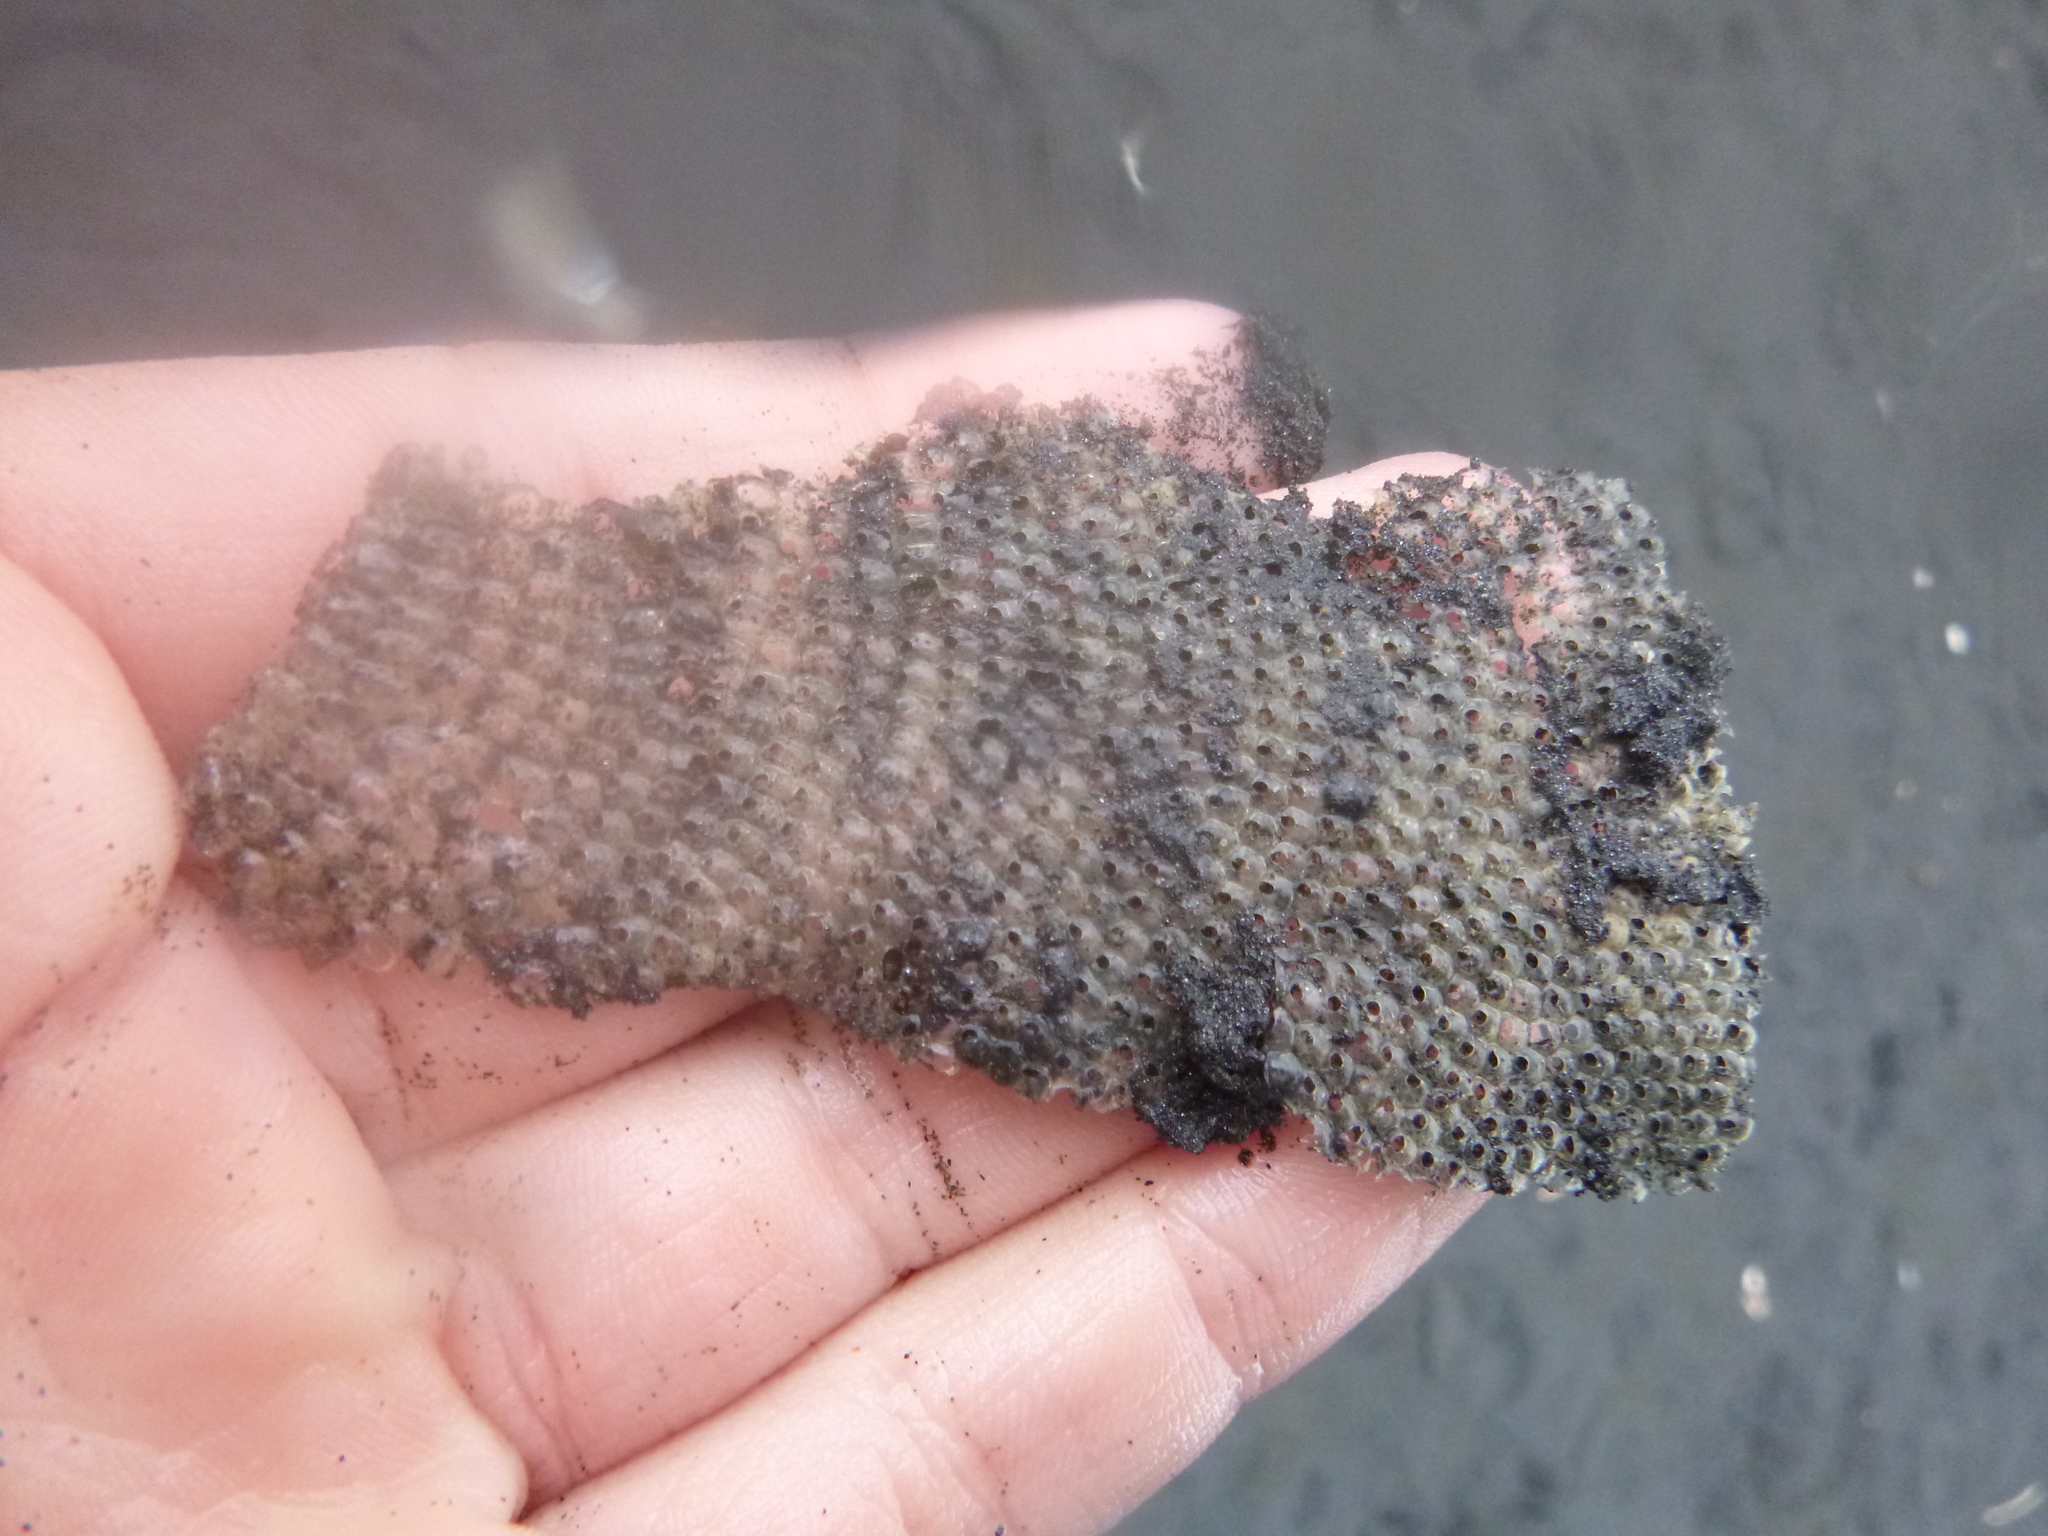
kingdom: Animalia
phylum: Mollusca
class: Gastropoda
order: Littorinimorpha
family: Tonnidae
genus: Tonna
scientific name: Tonna tankervillii
